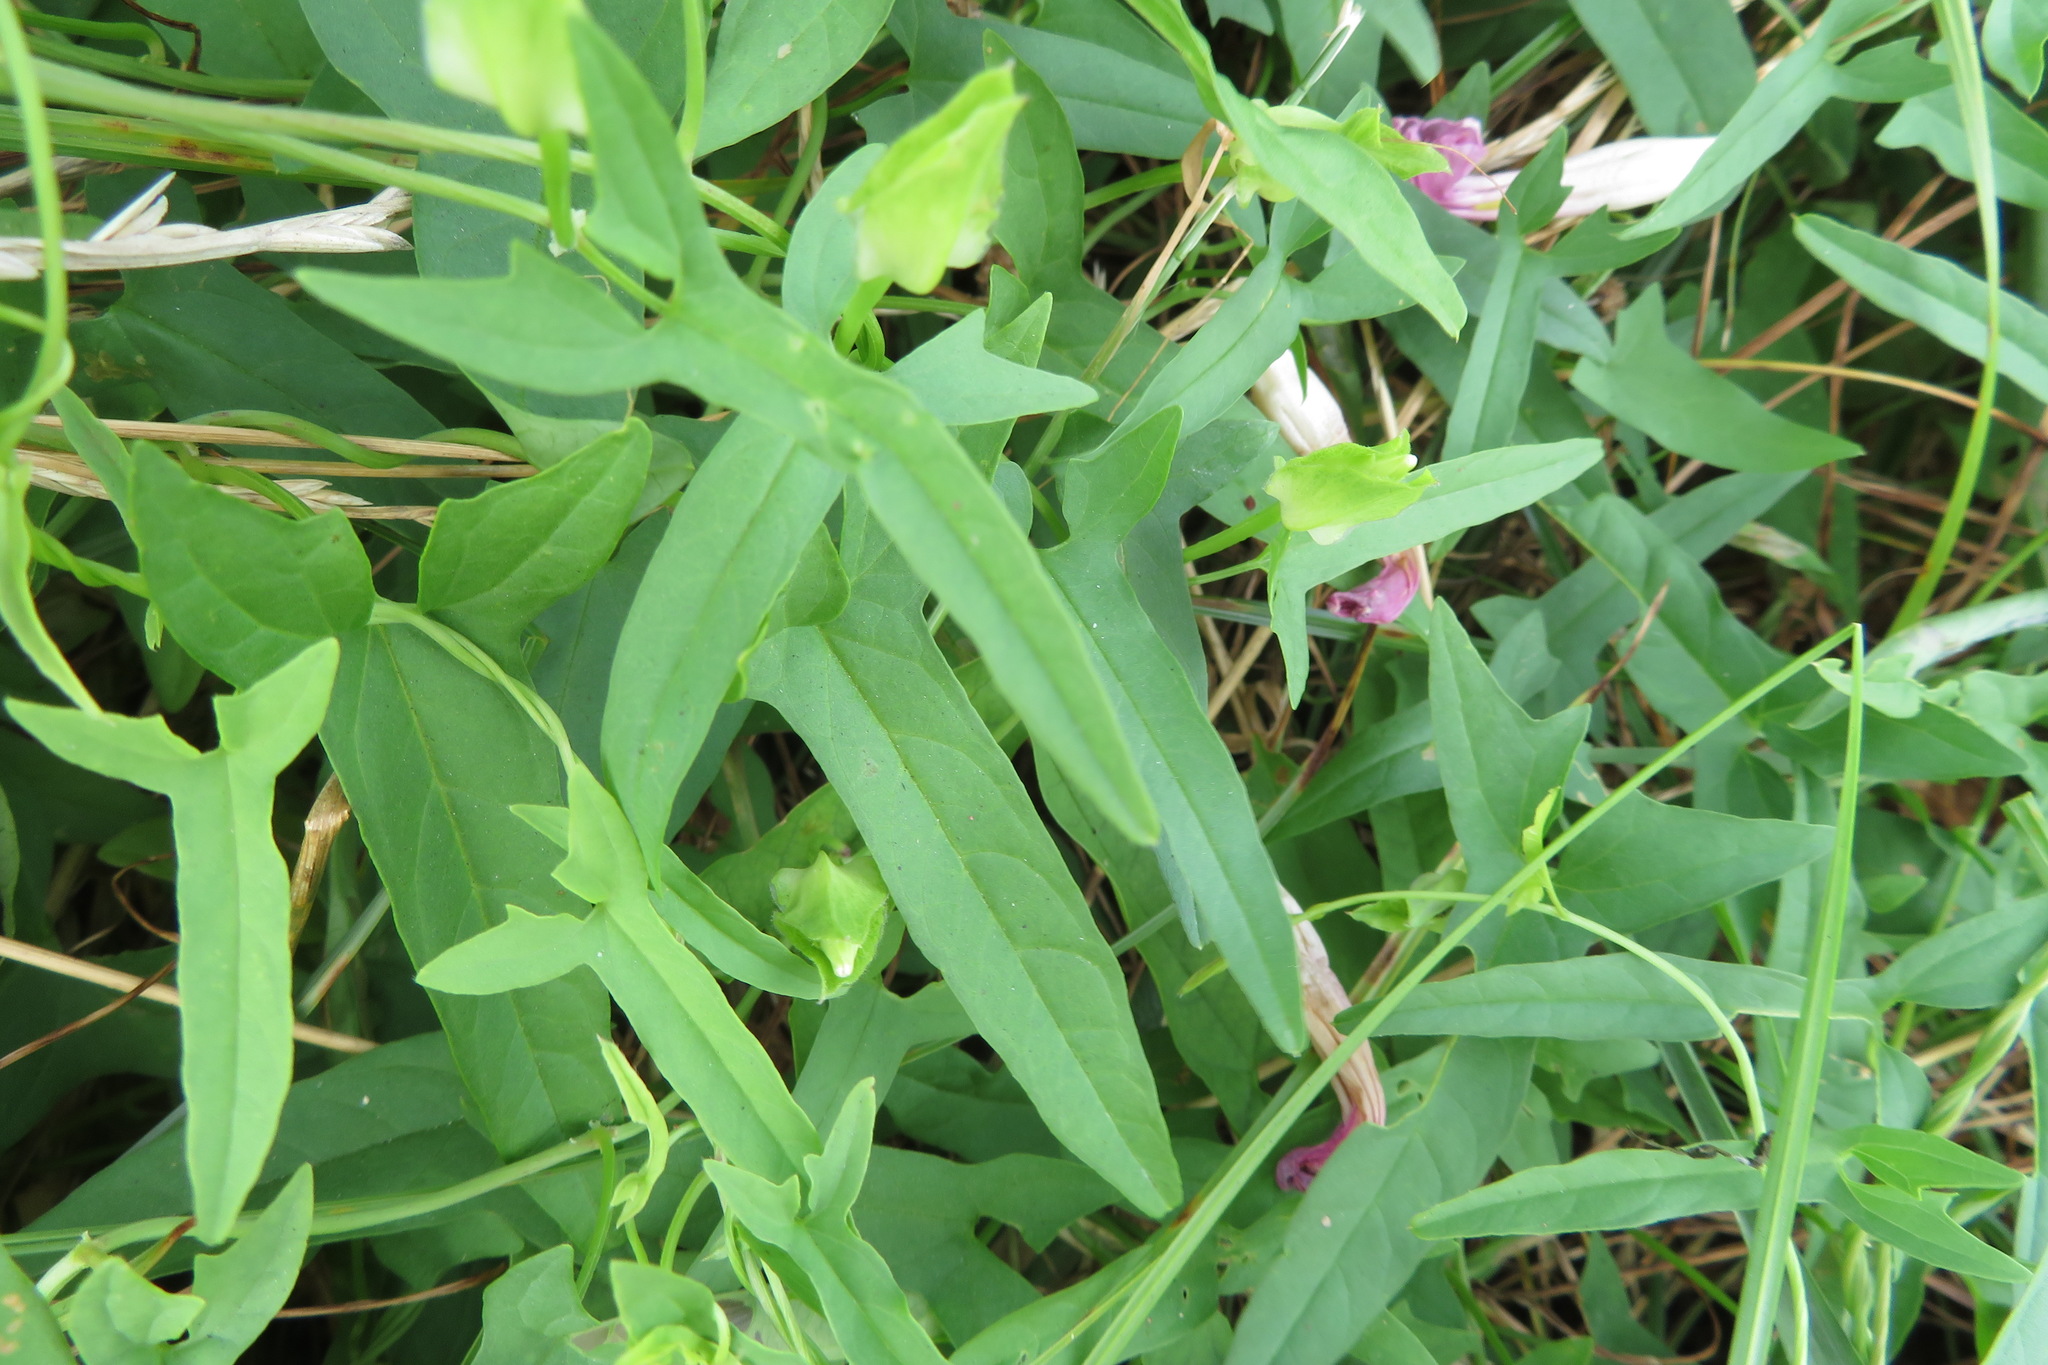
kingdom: Plantae
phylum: Tracheophyta
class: Magnoliopsida
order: Solanales
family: Convolvulaceae
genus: Calystegia
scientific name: Calystegia pubescens
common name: Japanese bindweed
